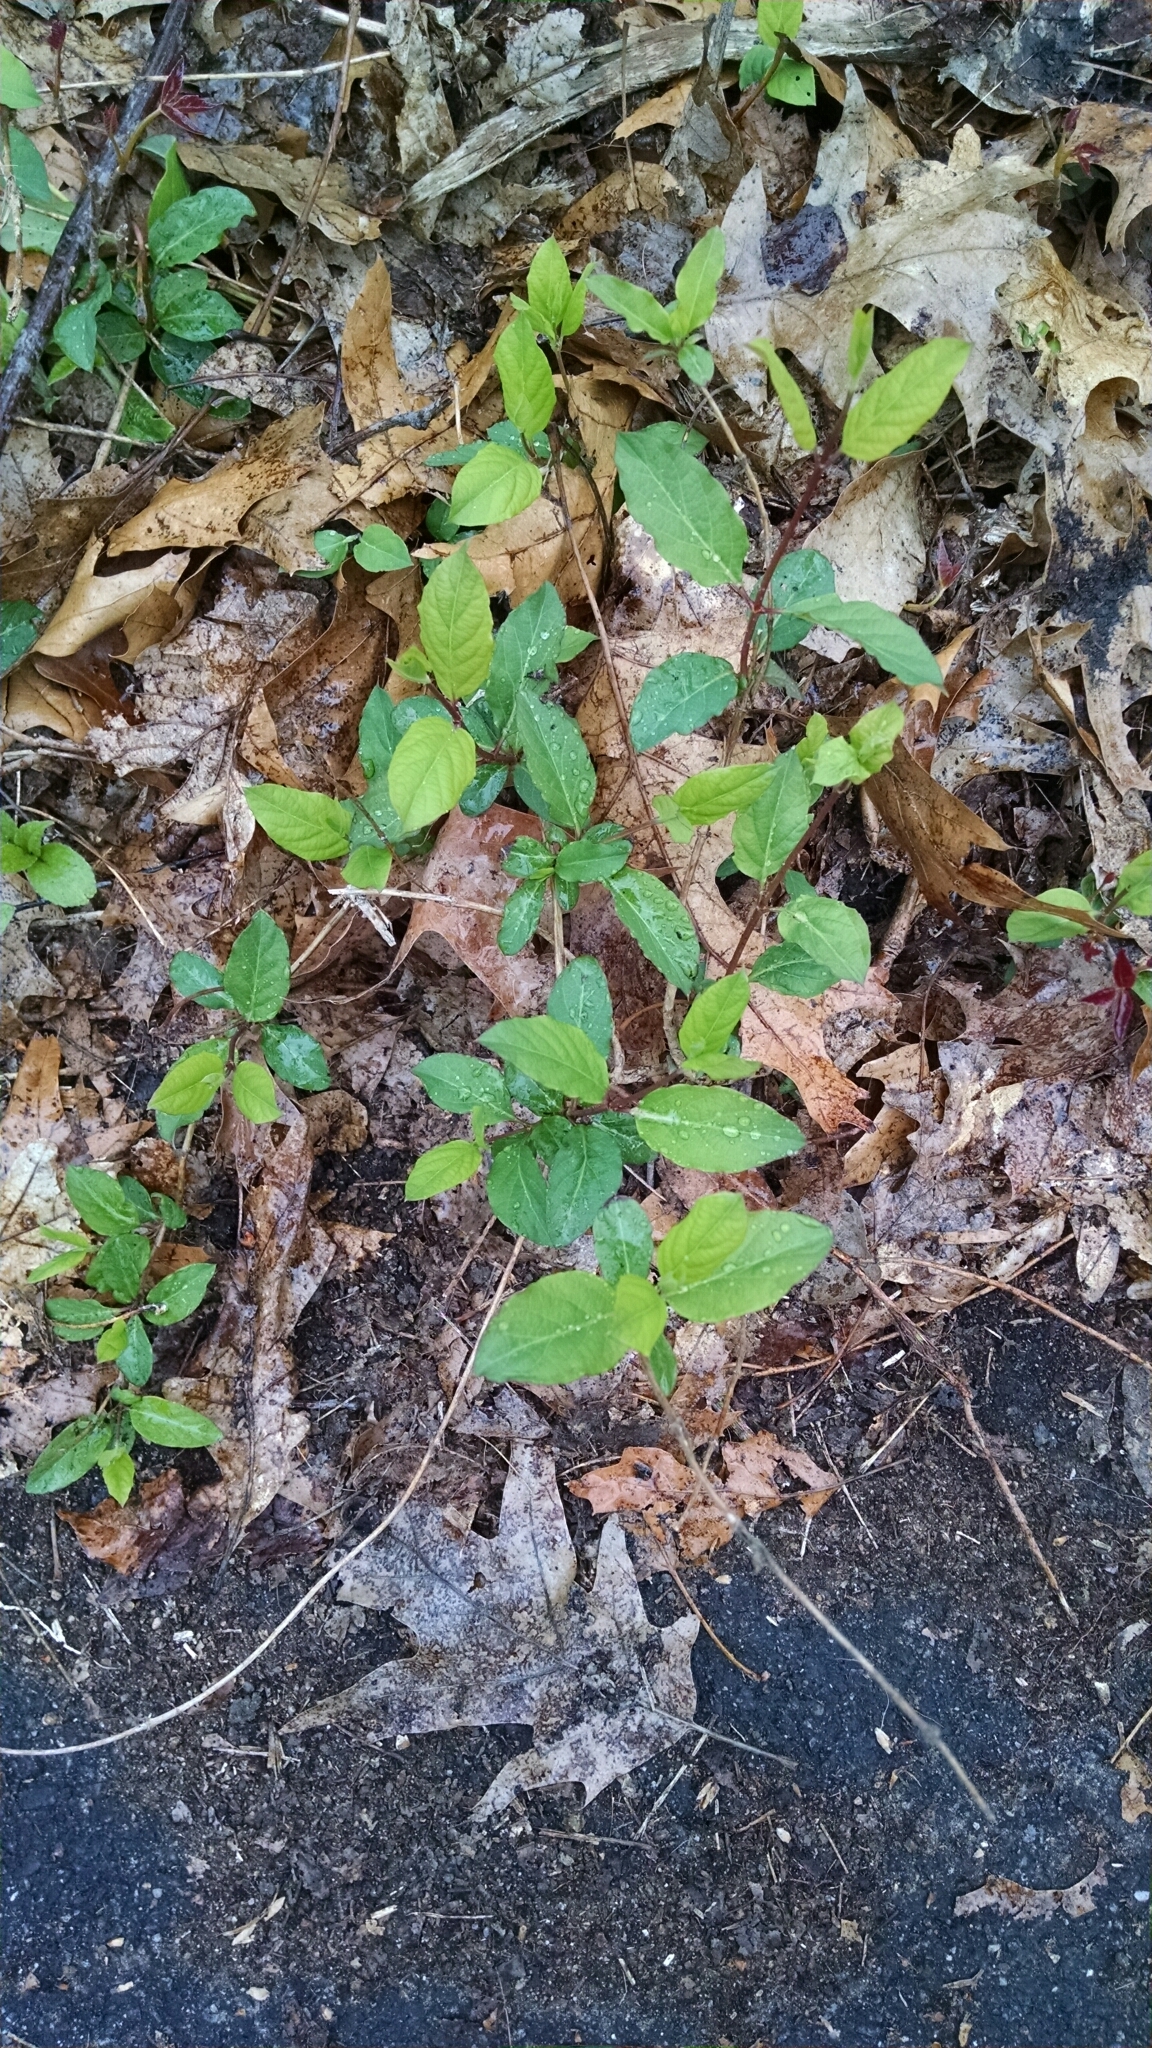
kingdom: Plantae
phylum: Tracheophyta
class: Magnoliopsida
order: Dipsacales
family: Caprifoliaceae
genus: Lonicera
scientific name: Lonicera japonica
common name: Japanese honeysuckle
